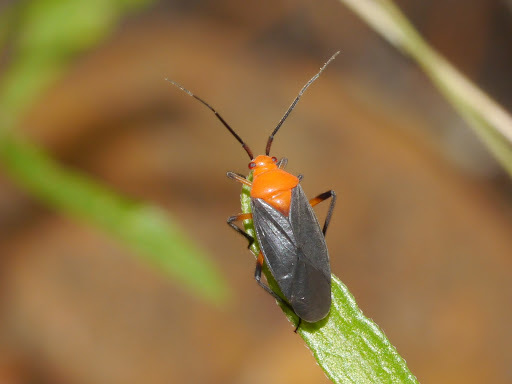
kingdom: Animalia
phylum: Arthropoda
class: Insecta
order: Hemiptera
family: Miridae
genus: Prepops
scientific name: Prepops atripennis
